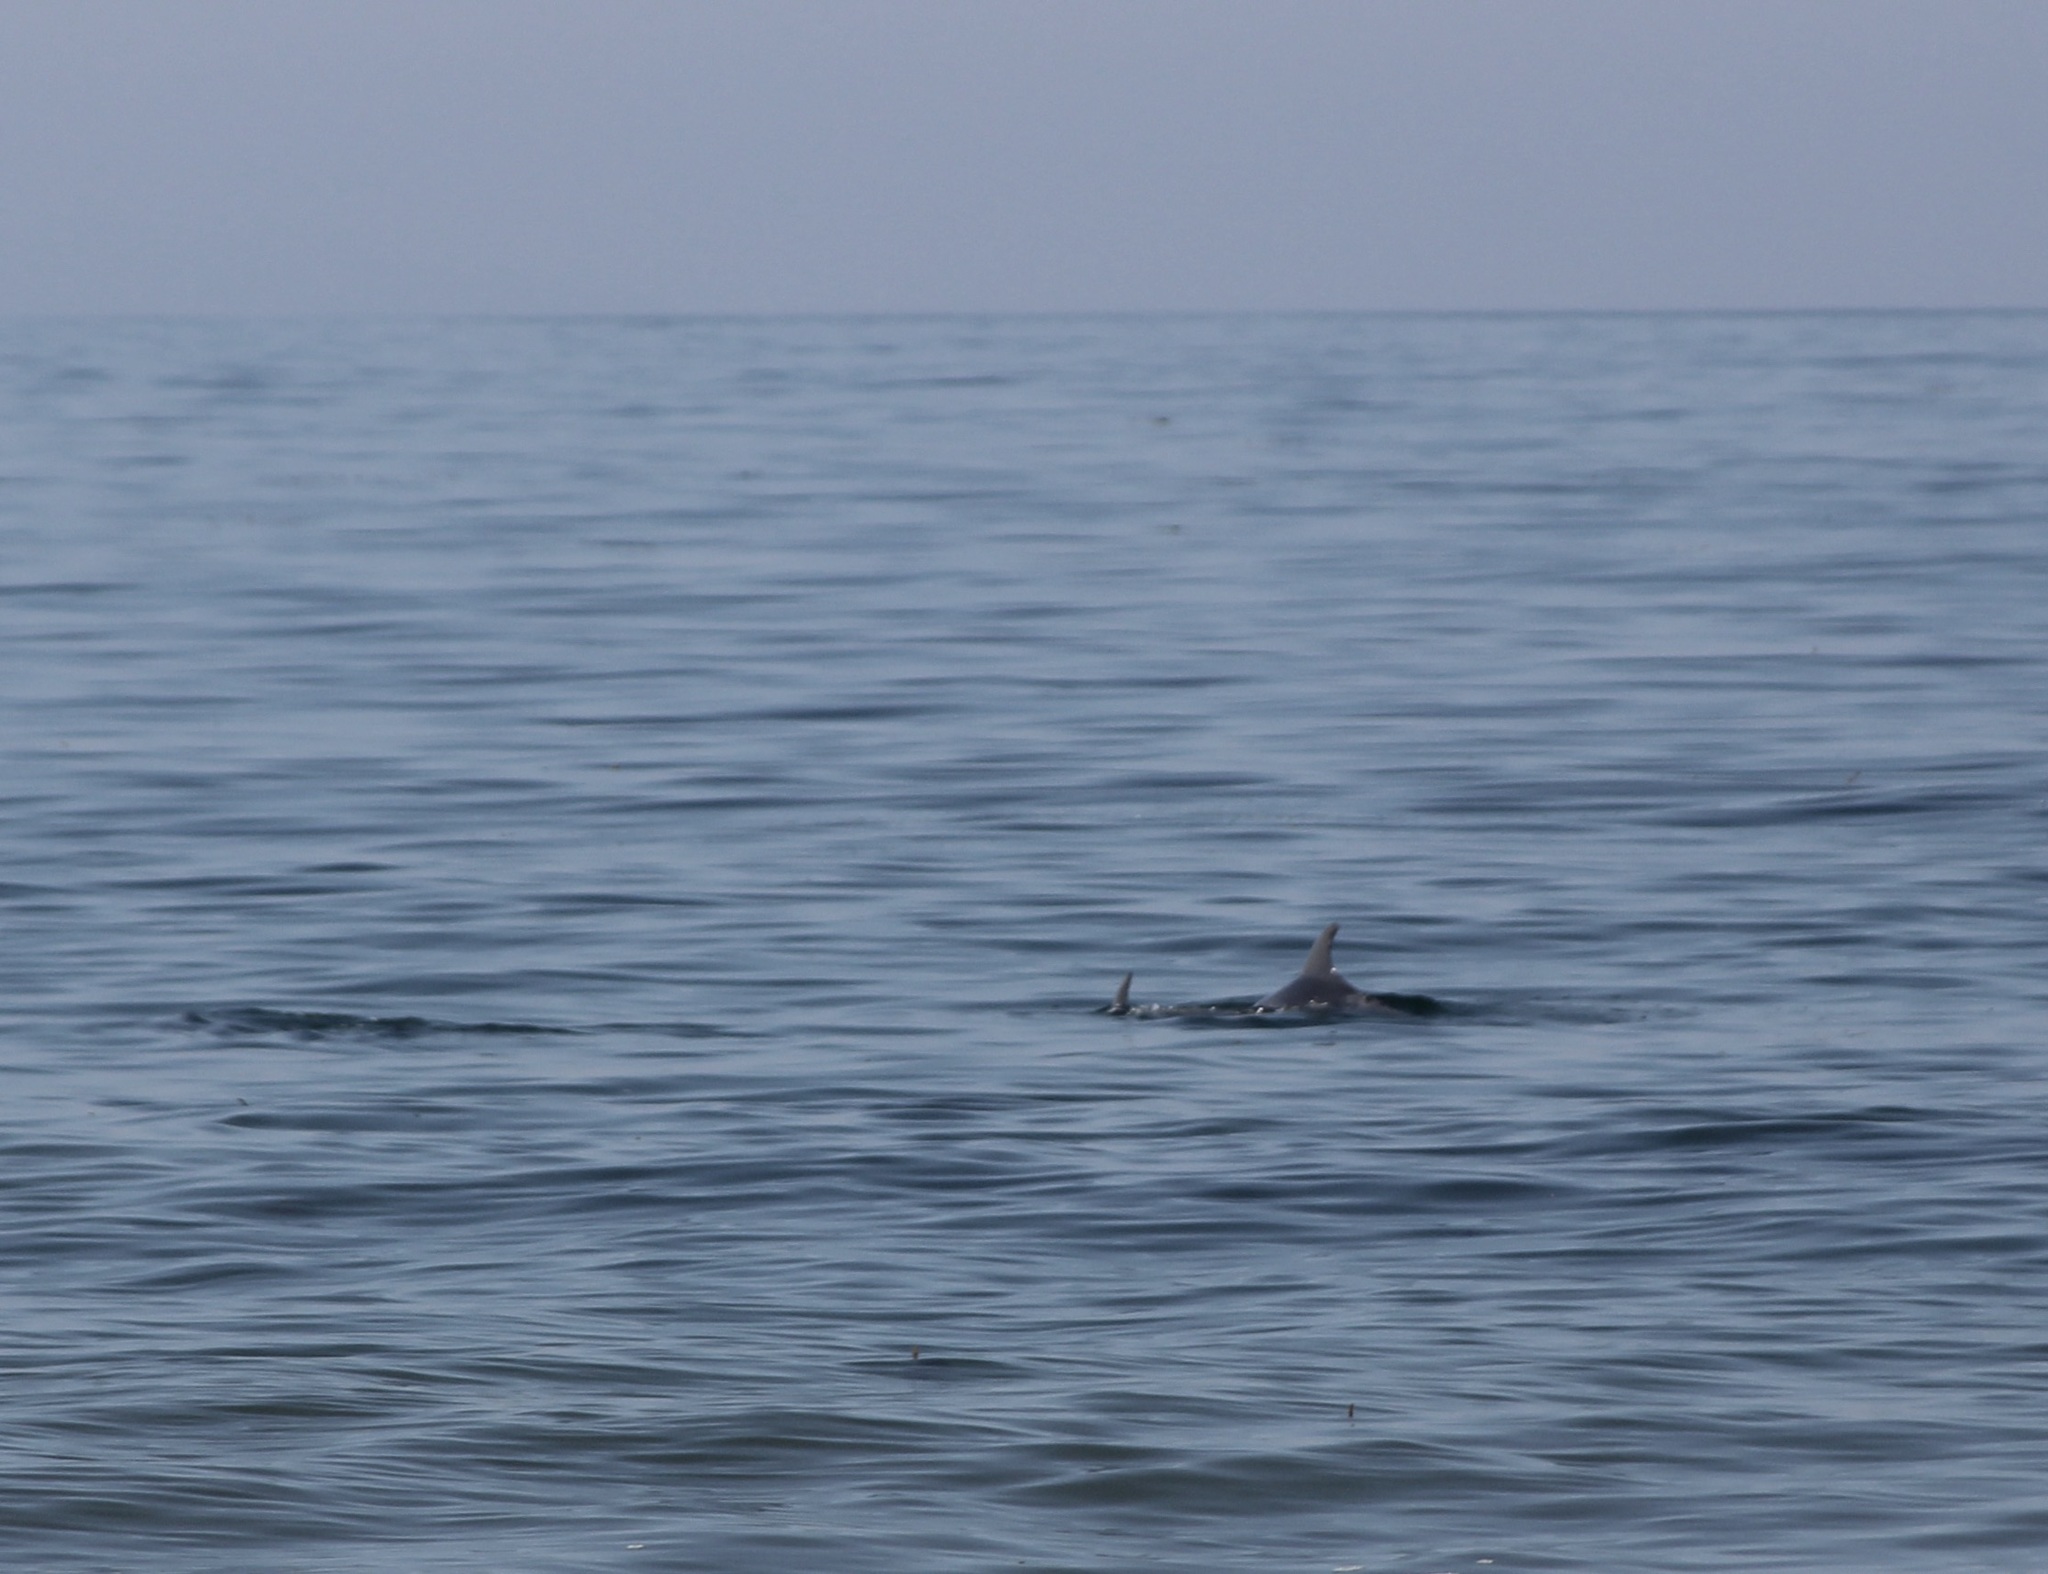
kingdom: Animalia
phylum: Chordata
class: Mammalia
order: Cetacea
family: Delphinidae
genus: Tursiops
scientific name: Tursiops truncatus
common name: Bottlenose dolphin
